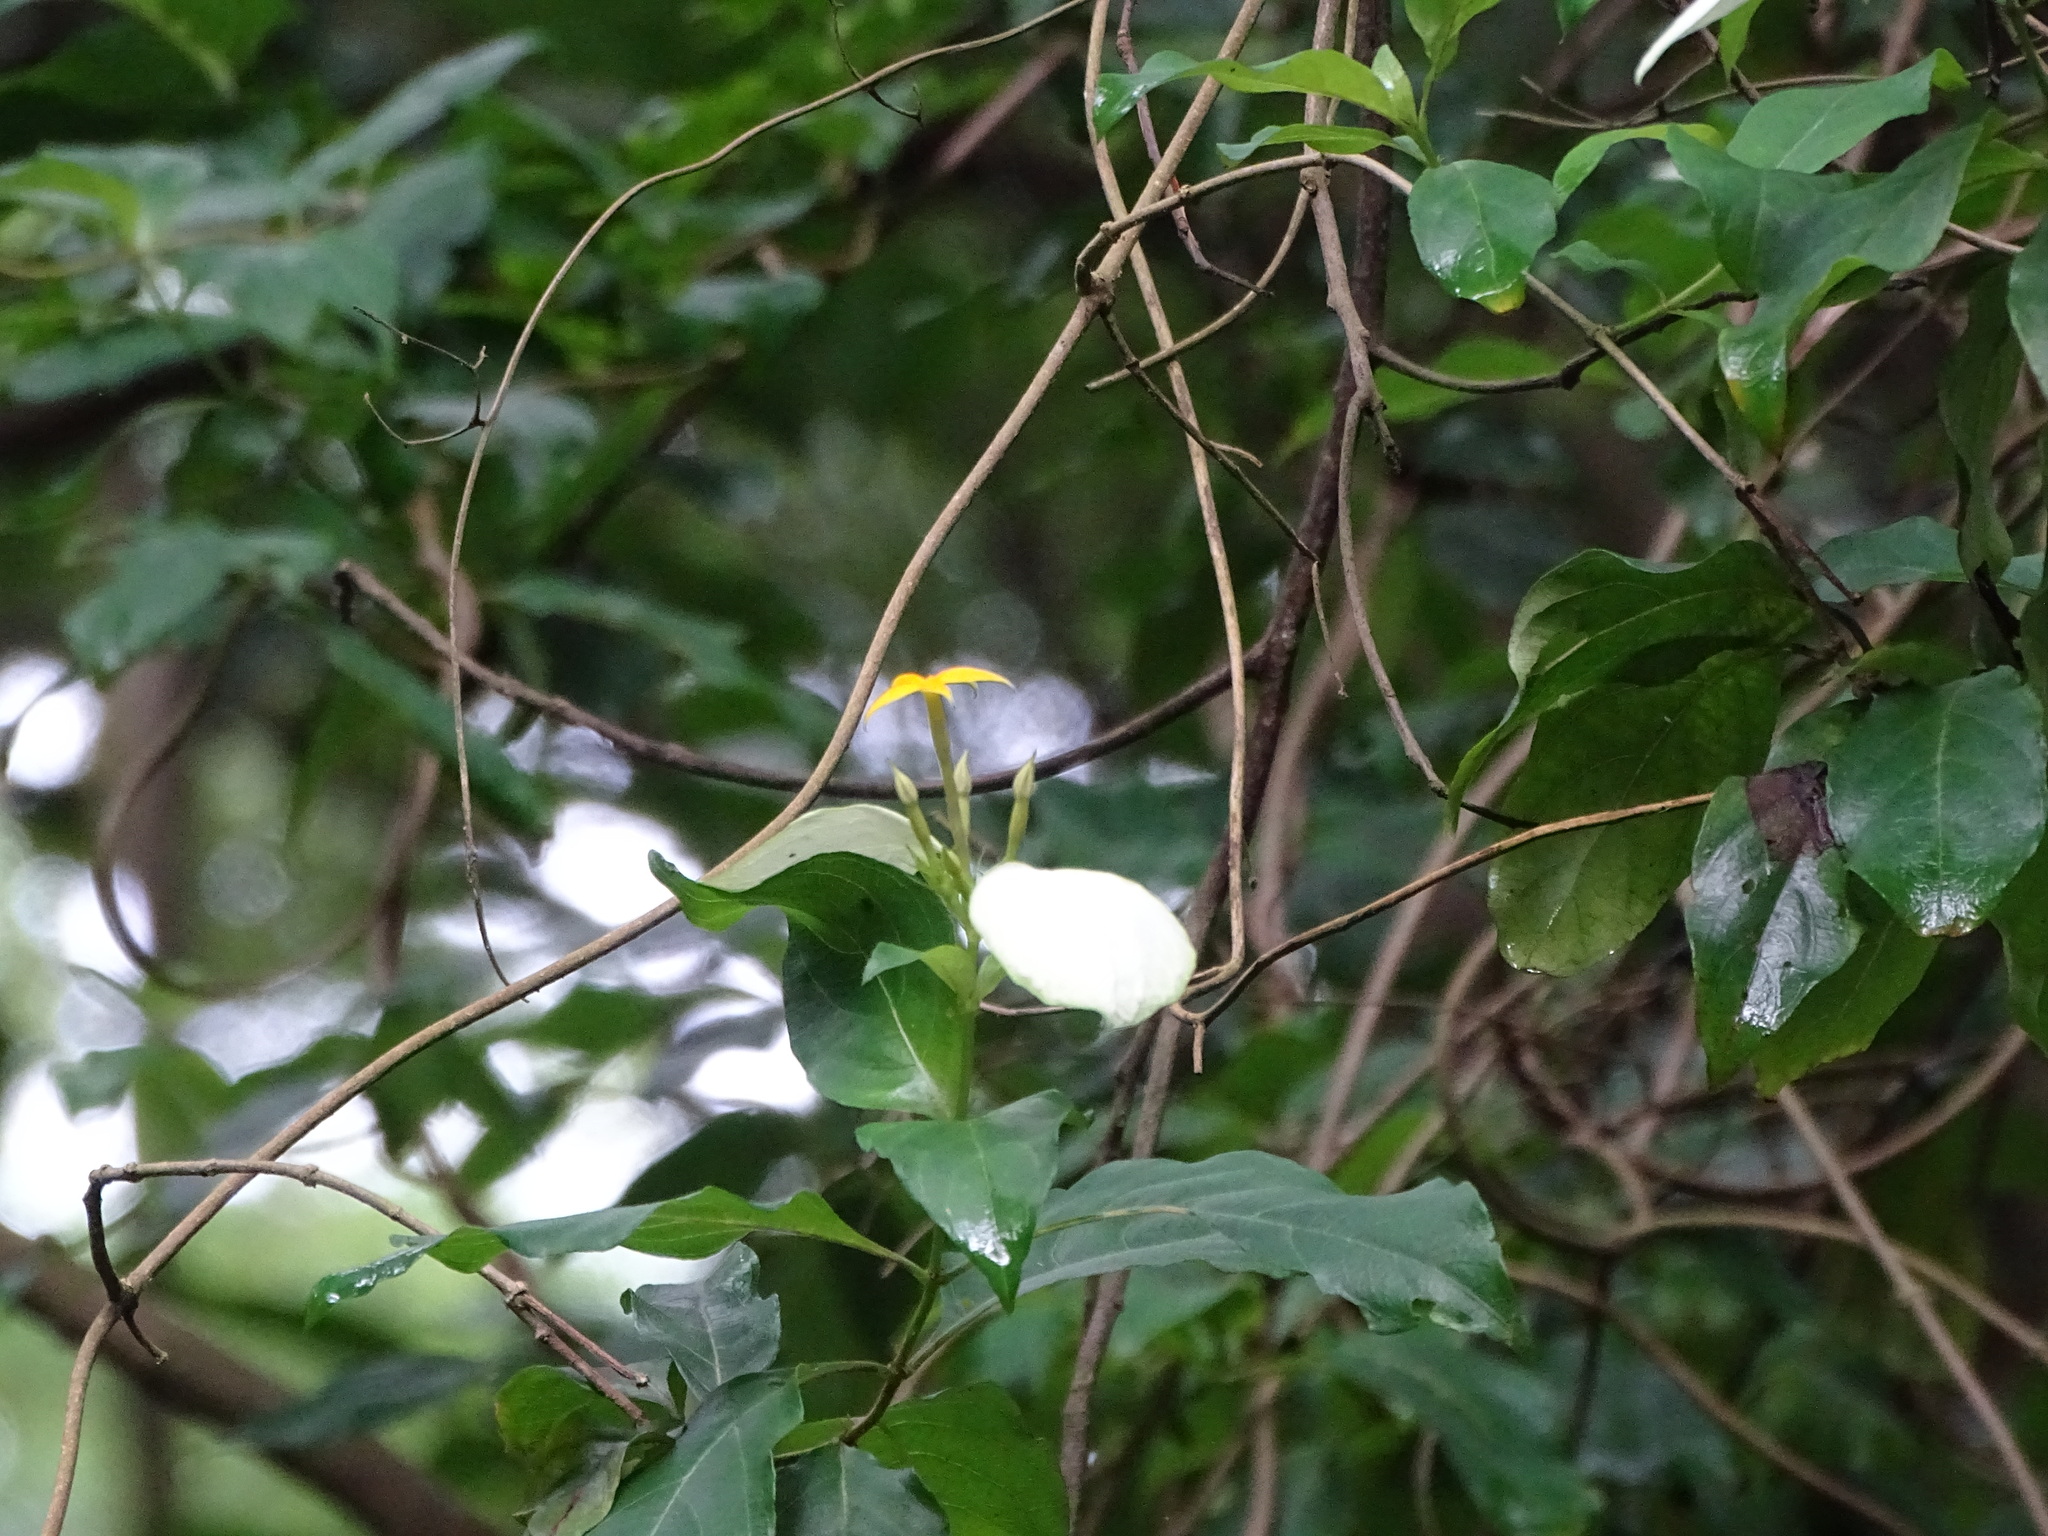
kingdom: Plantae
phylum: Tracheophyta
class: Magnoliopsida
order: Gentianales
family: Rubiaceae
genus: Mussaenda
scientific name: Mussaenda formosana
